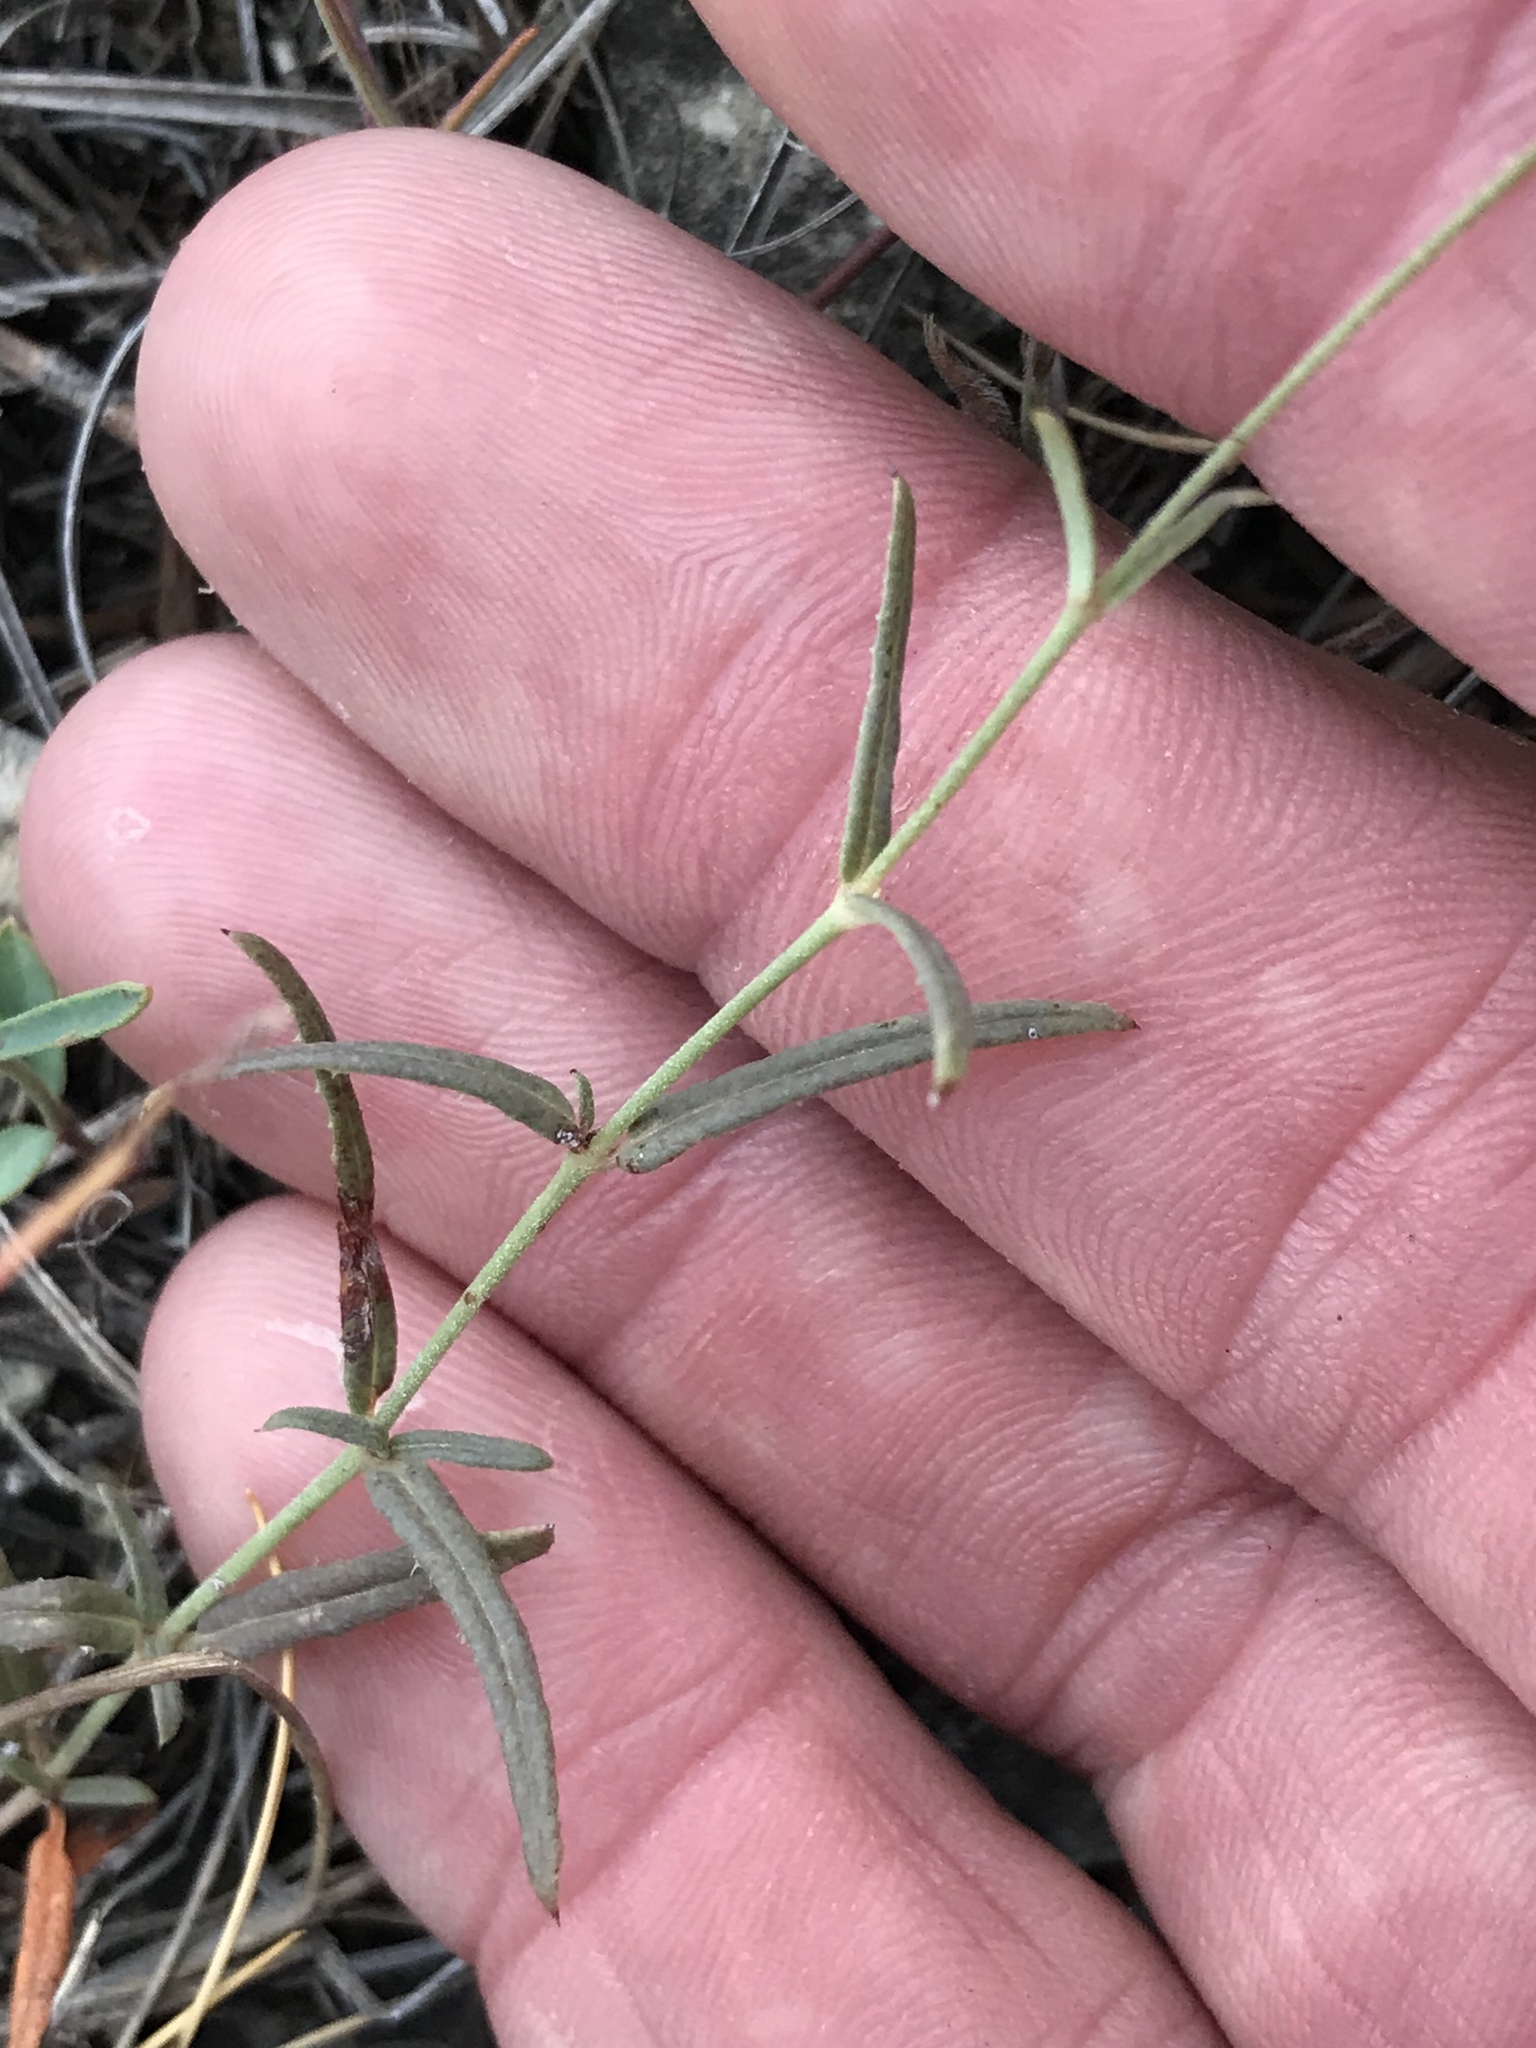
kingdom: Plantae
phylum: Tracheophyta
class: Magnoliopsida
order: Caryophyllales
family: Nyctaginaceae
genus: Boerhavia
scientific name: Boerhavia linearifolia
